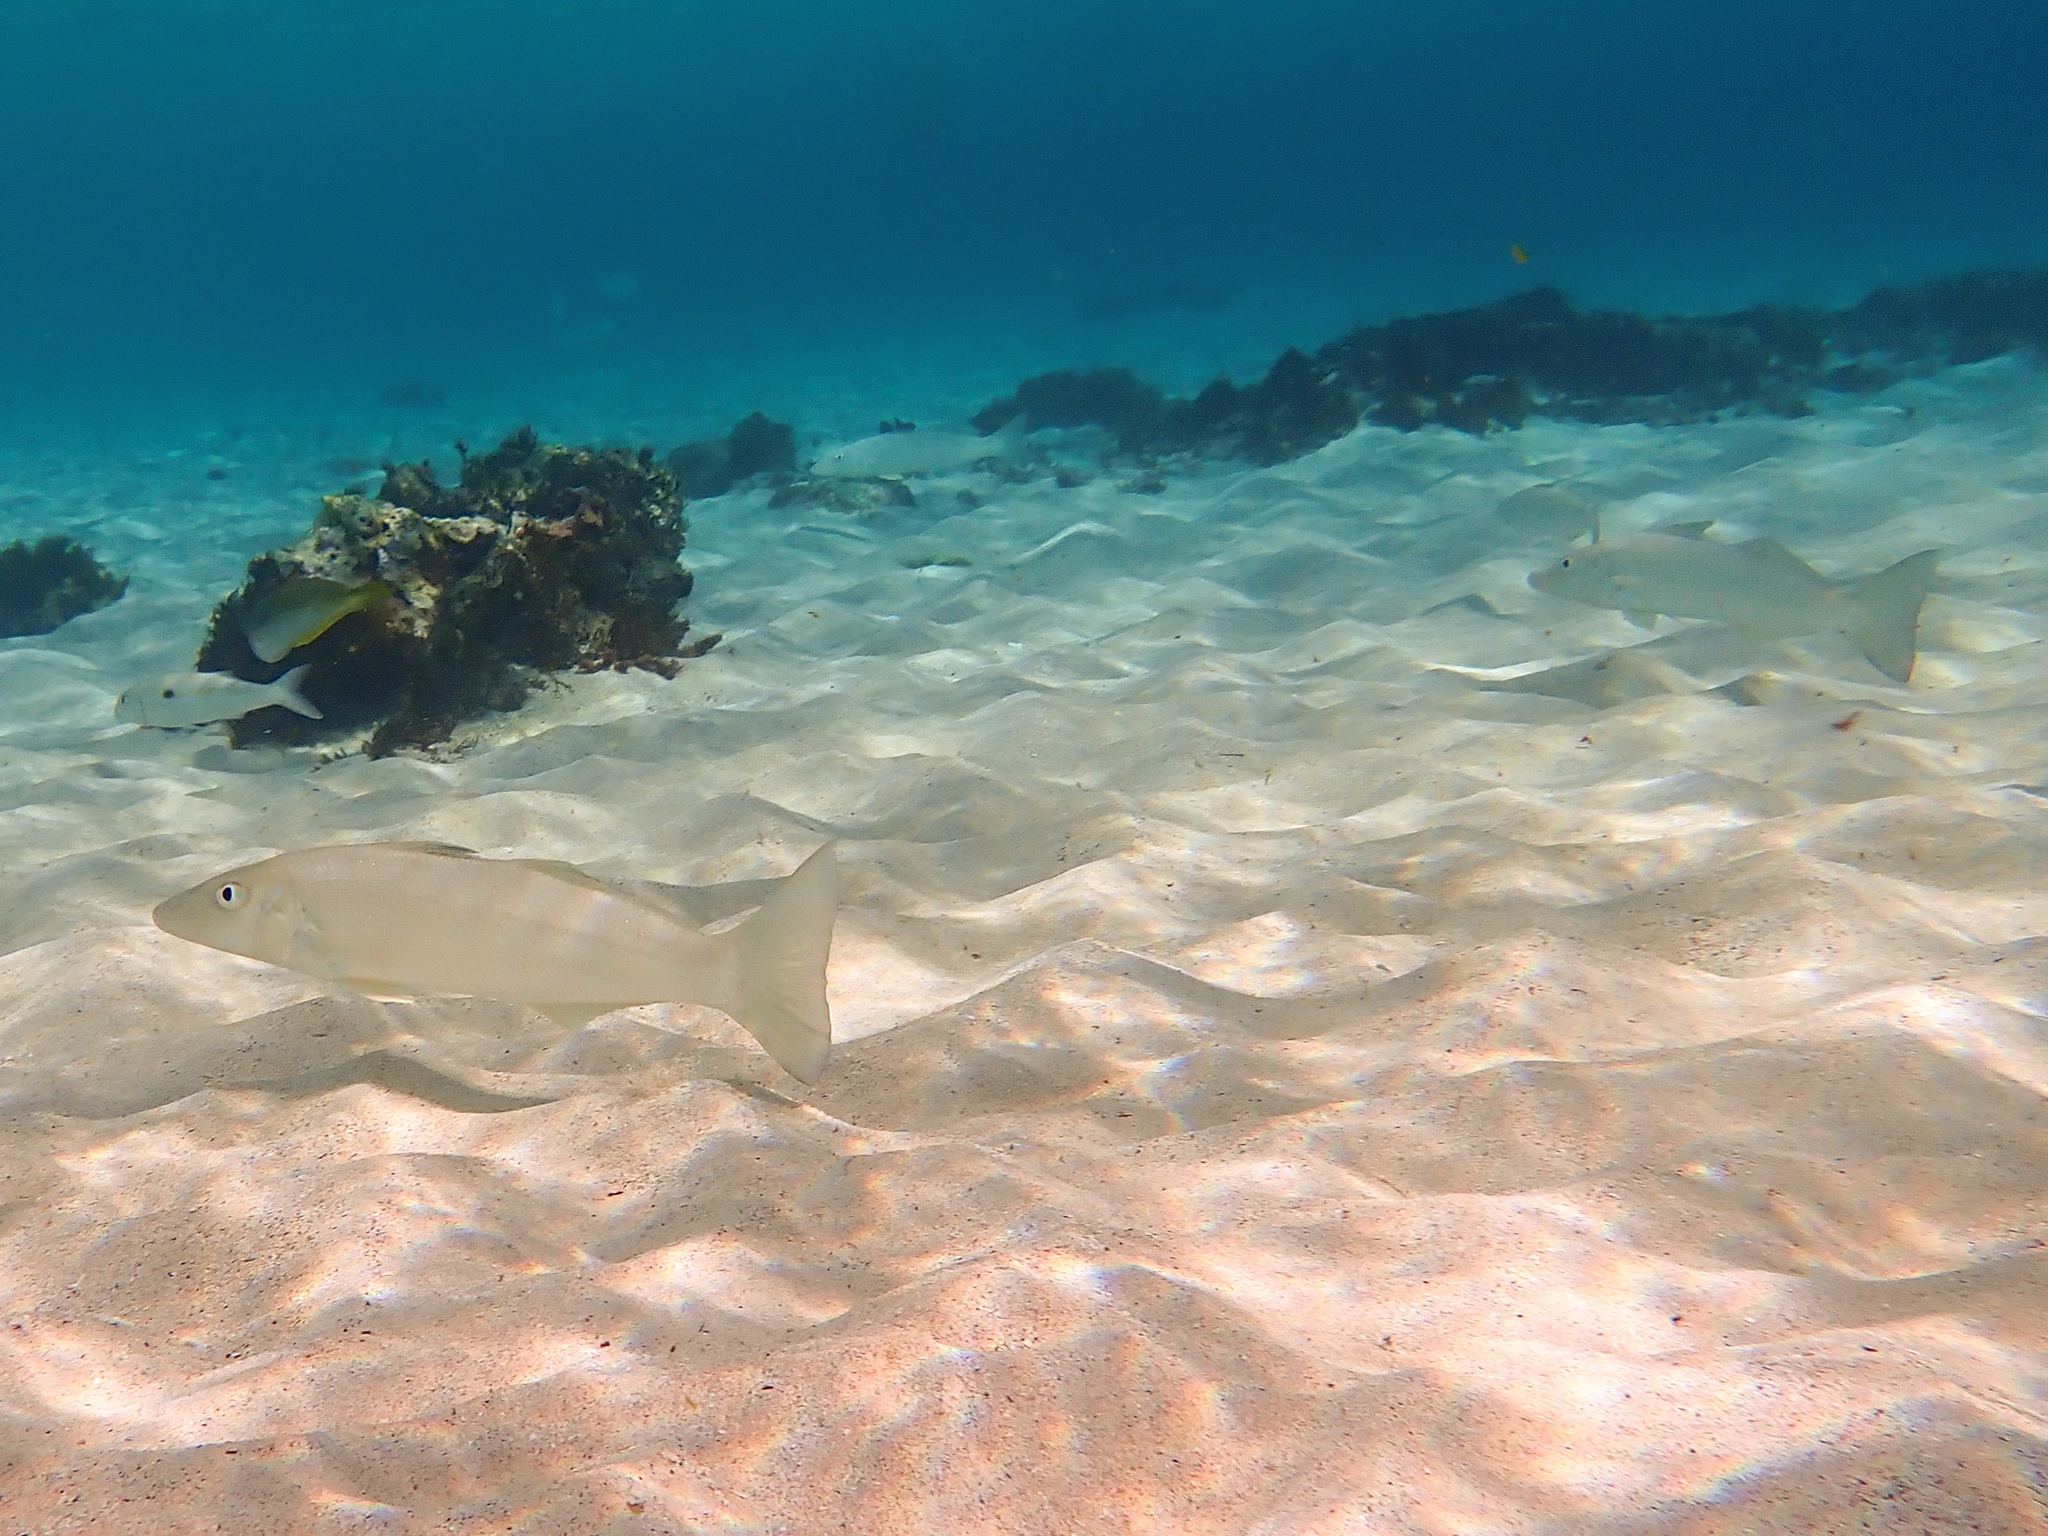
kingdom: Animalia
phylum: Chordata
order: Perciformes
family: Sillaginidae
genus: Sillago
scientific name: Sillago ciliata
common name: Sand sillago
